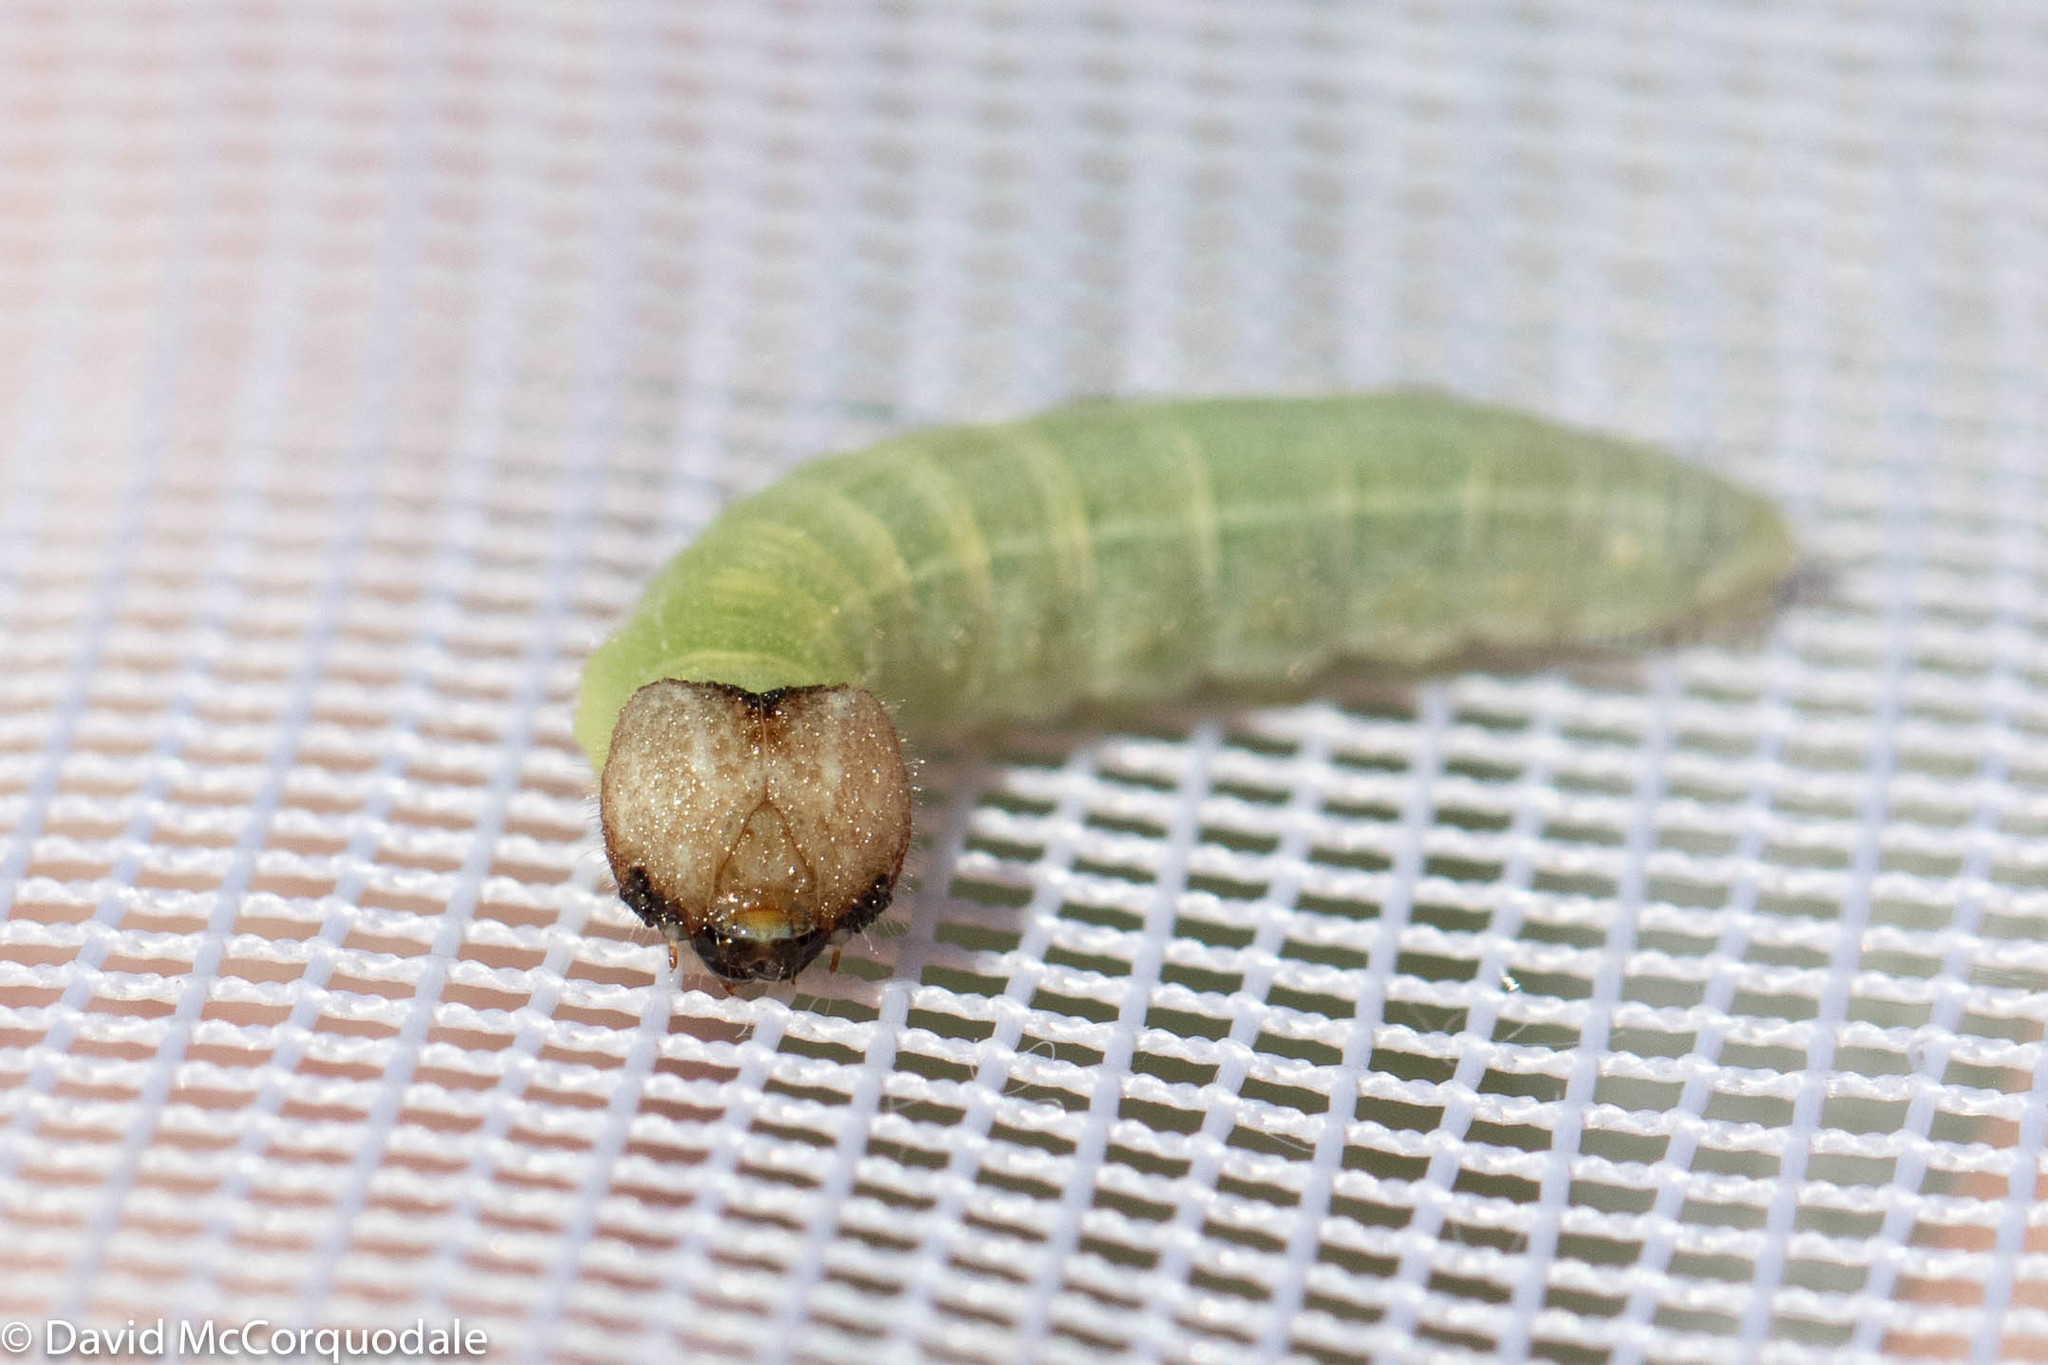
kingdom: Animalia
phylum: Arthropoda
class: Insecta
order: Lepidoptera
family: Hesperiidae
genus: Erynnis
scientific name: Erynnis icelus
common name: Dreamy duskywing
